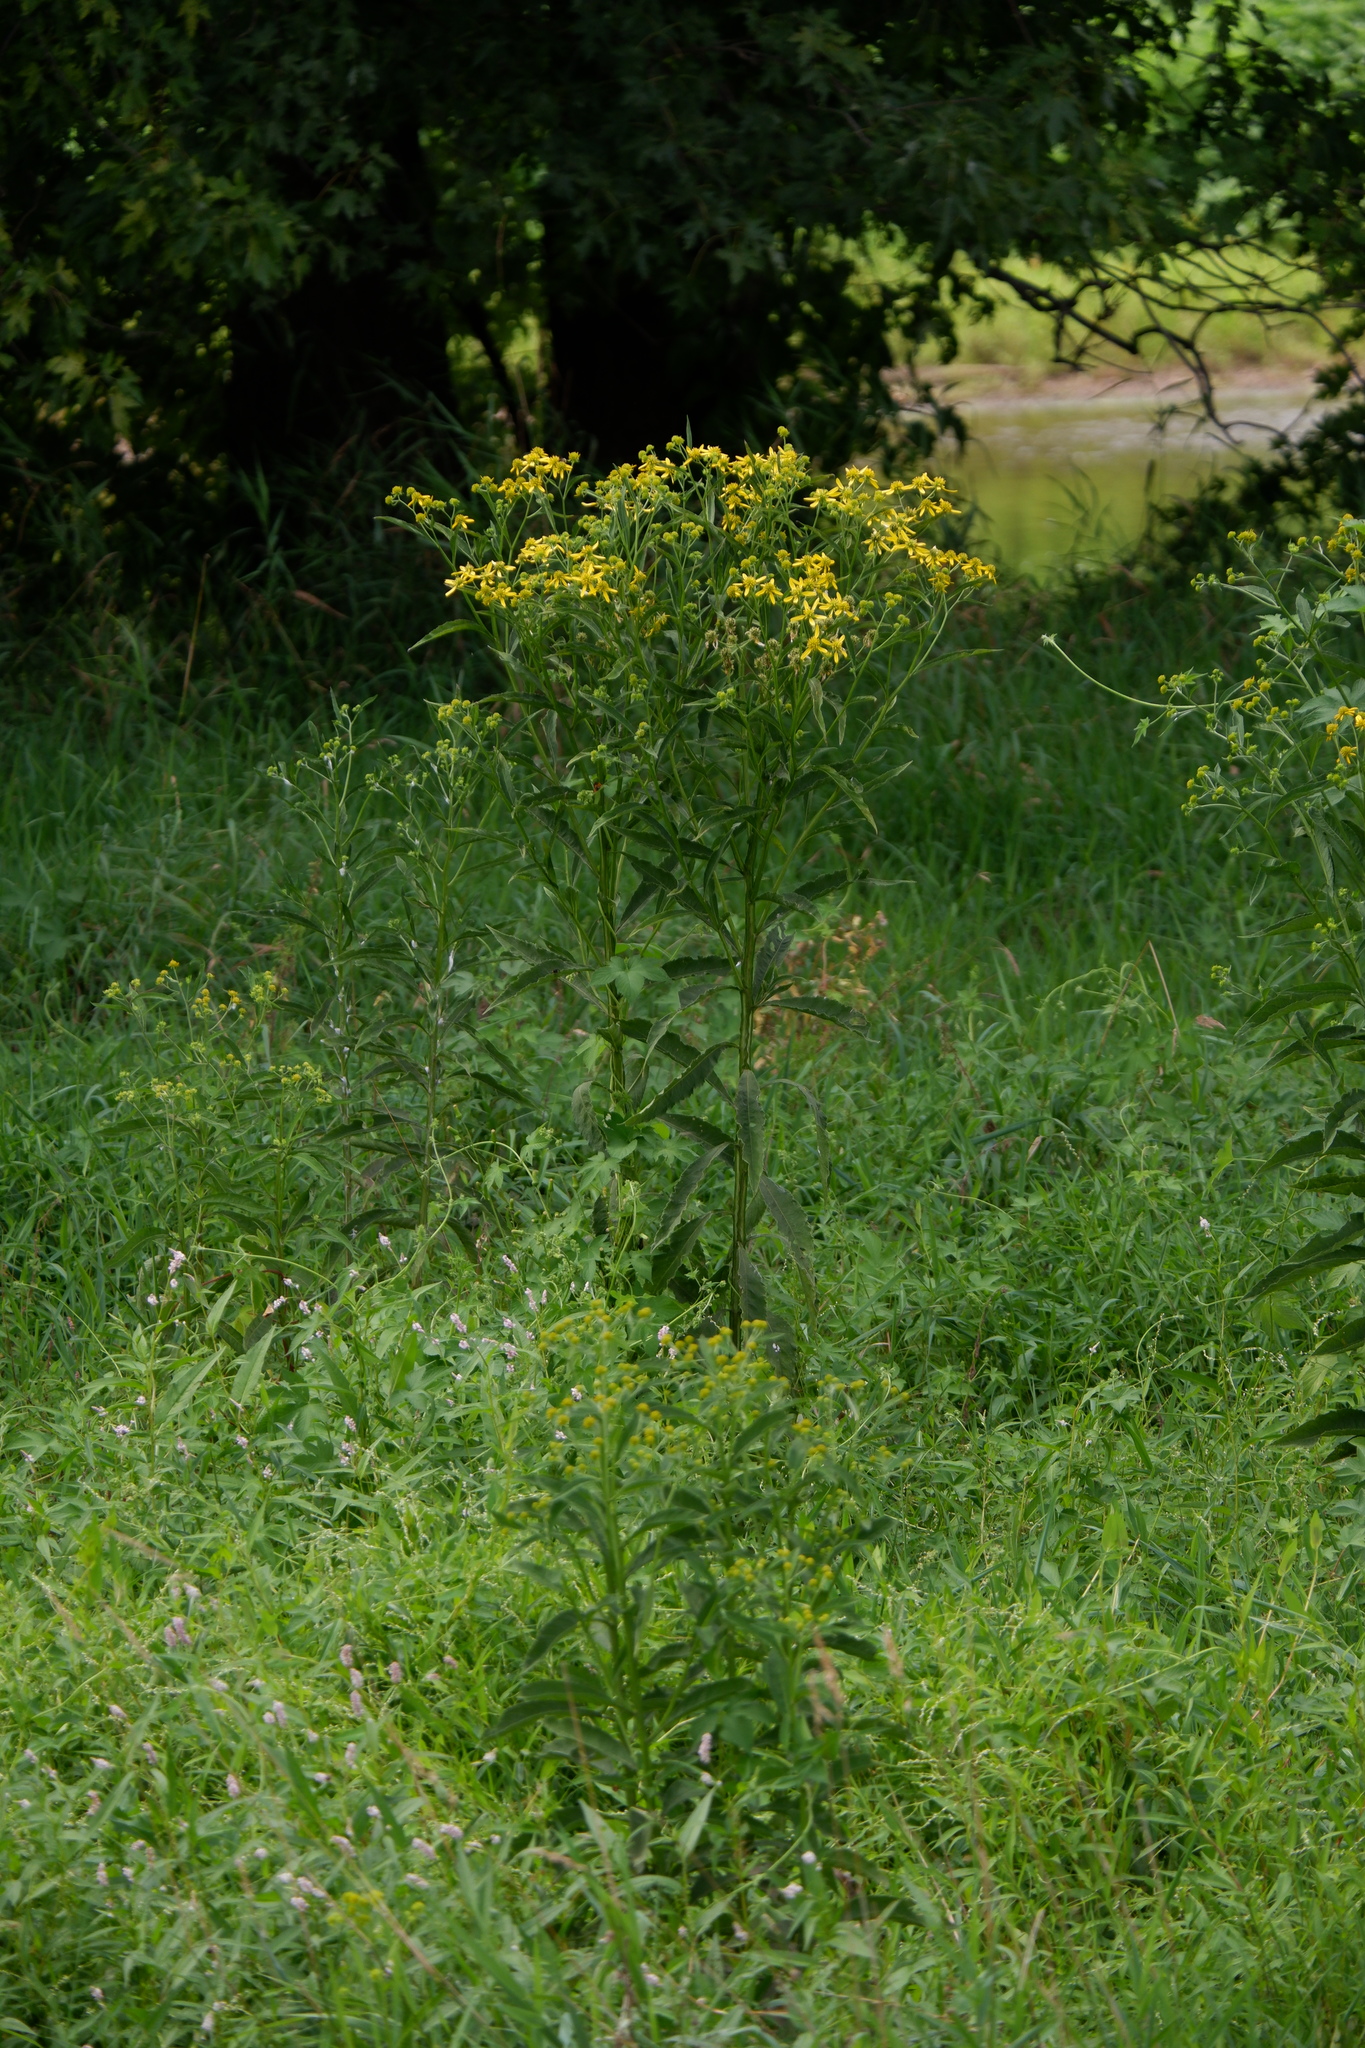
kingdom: Plantae
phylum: Tracheophyta
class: Magnoliopsida
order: Asterales
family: Asteraceae
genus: Verbesina
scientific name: Verbesina alternifolia
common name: Wingstem
